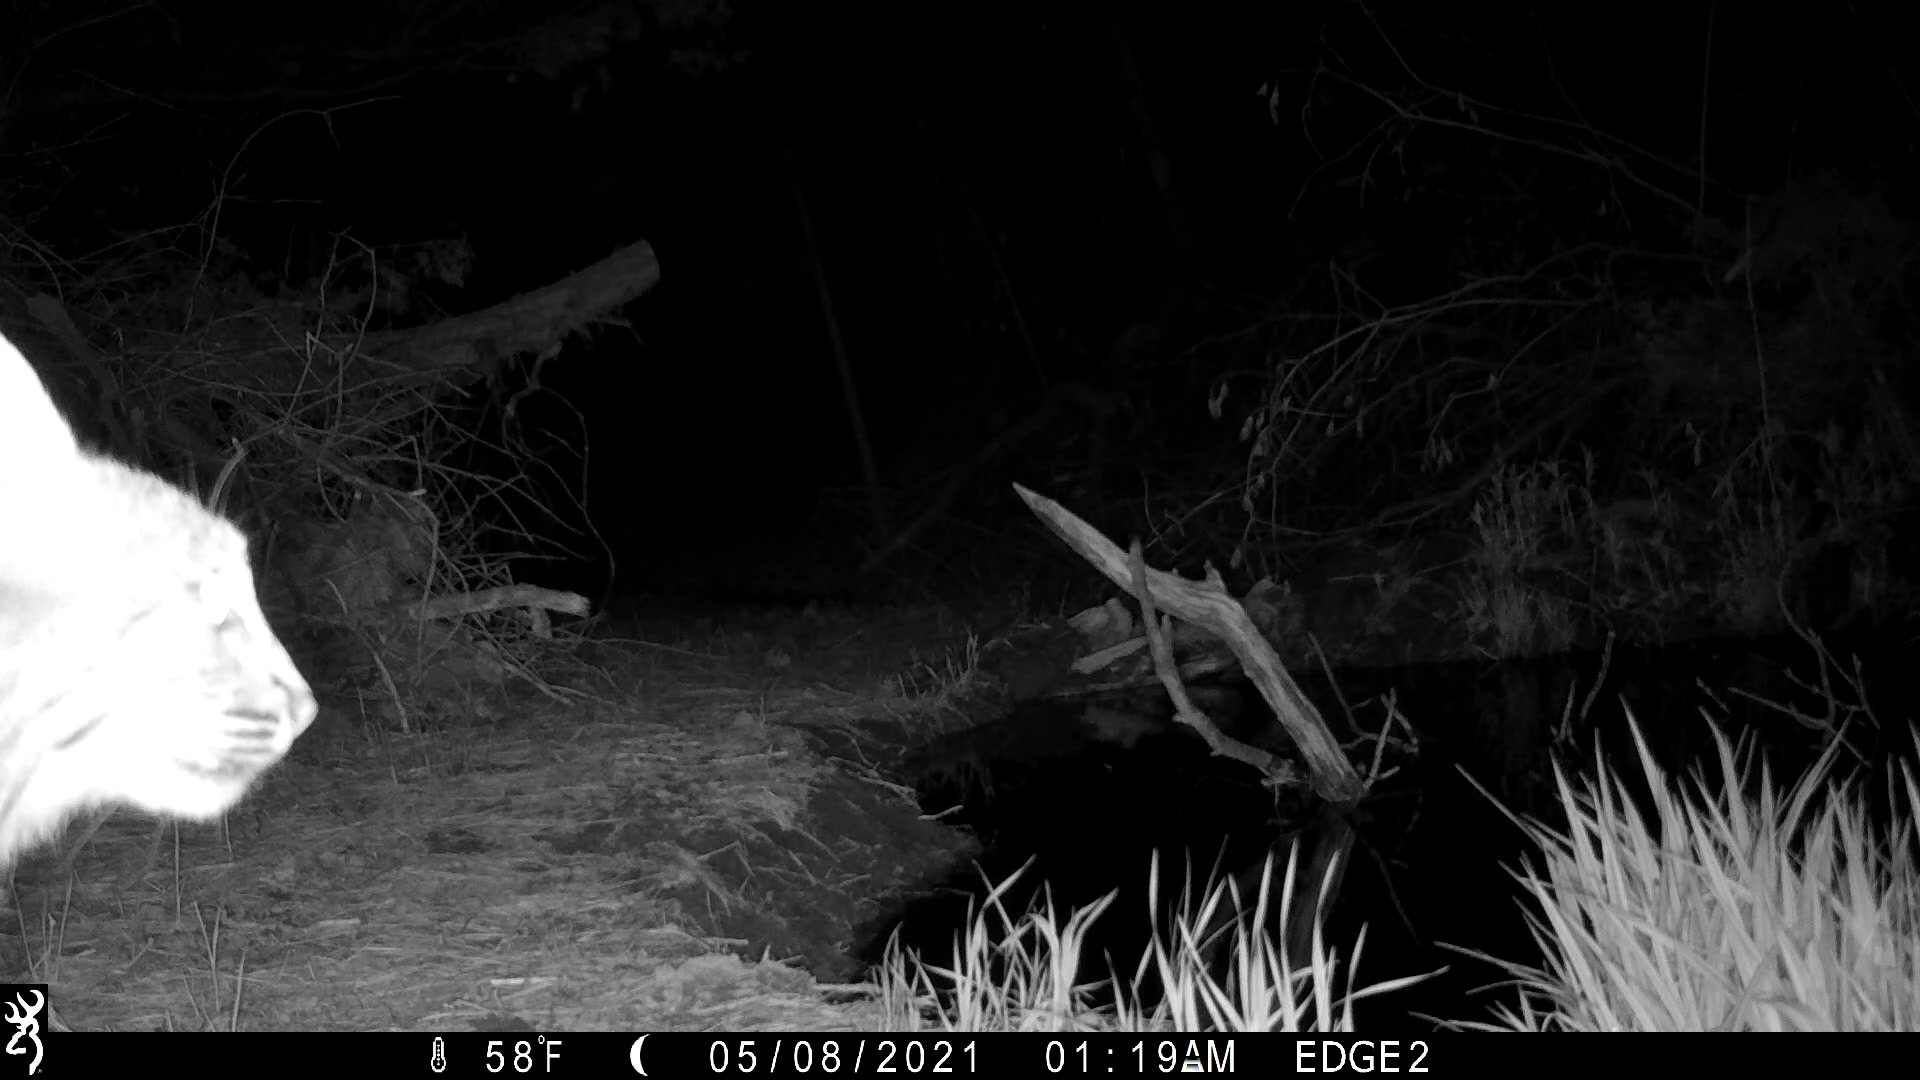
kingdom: Animalia
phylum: Chordata
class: Mammalia
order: Carnivora
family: Felidae
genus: Lynx
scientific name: Lynx rufus
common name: Bobcat
